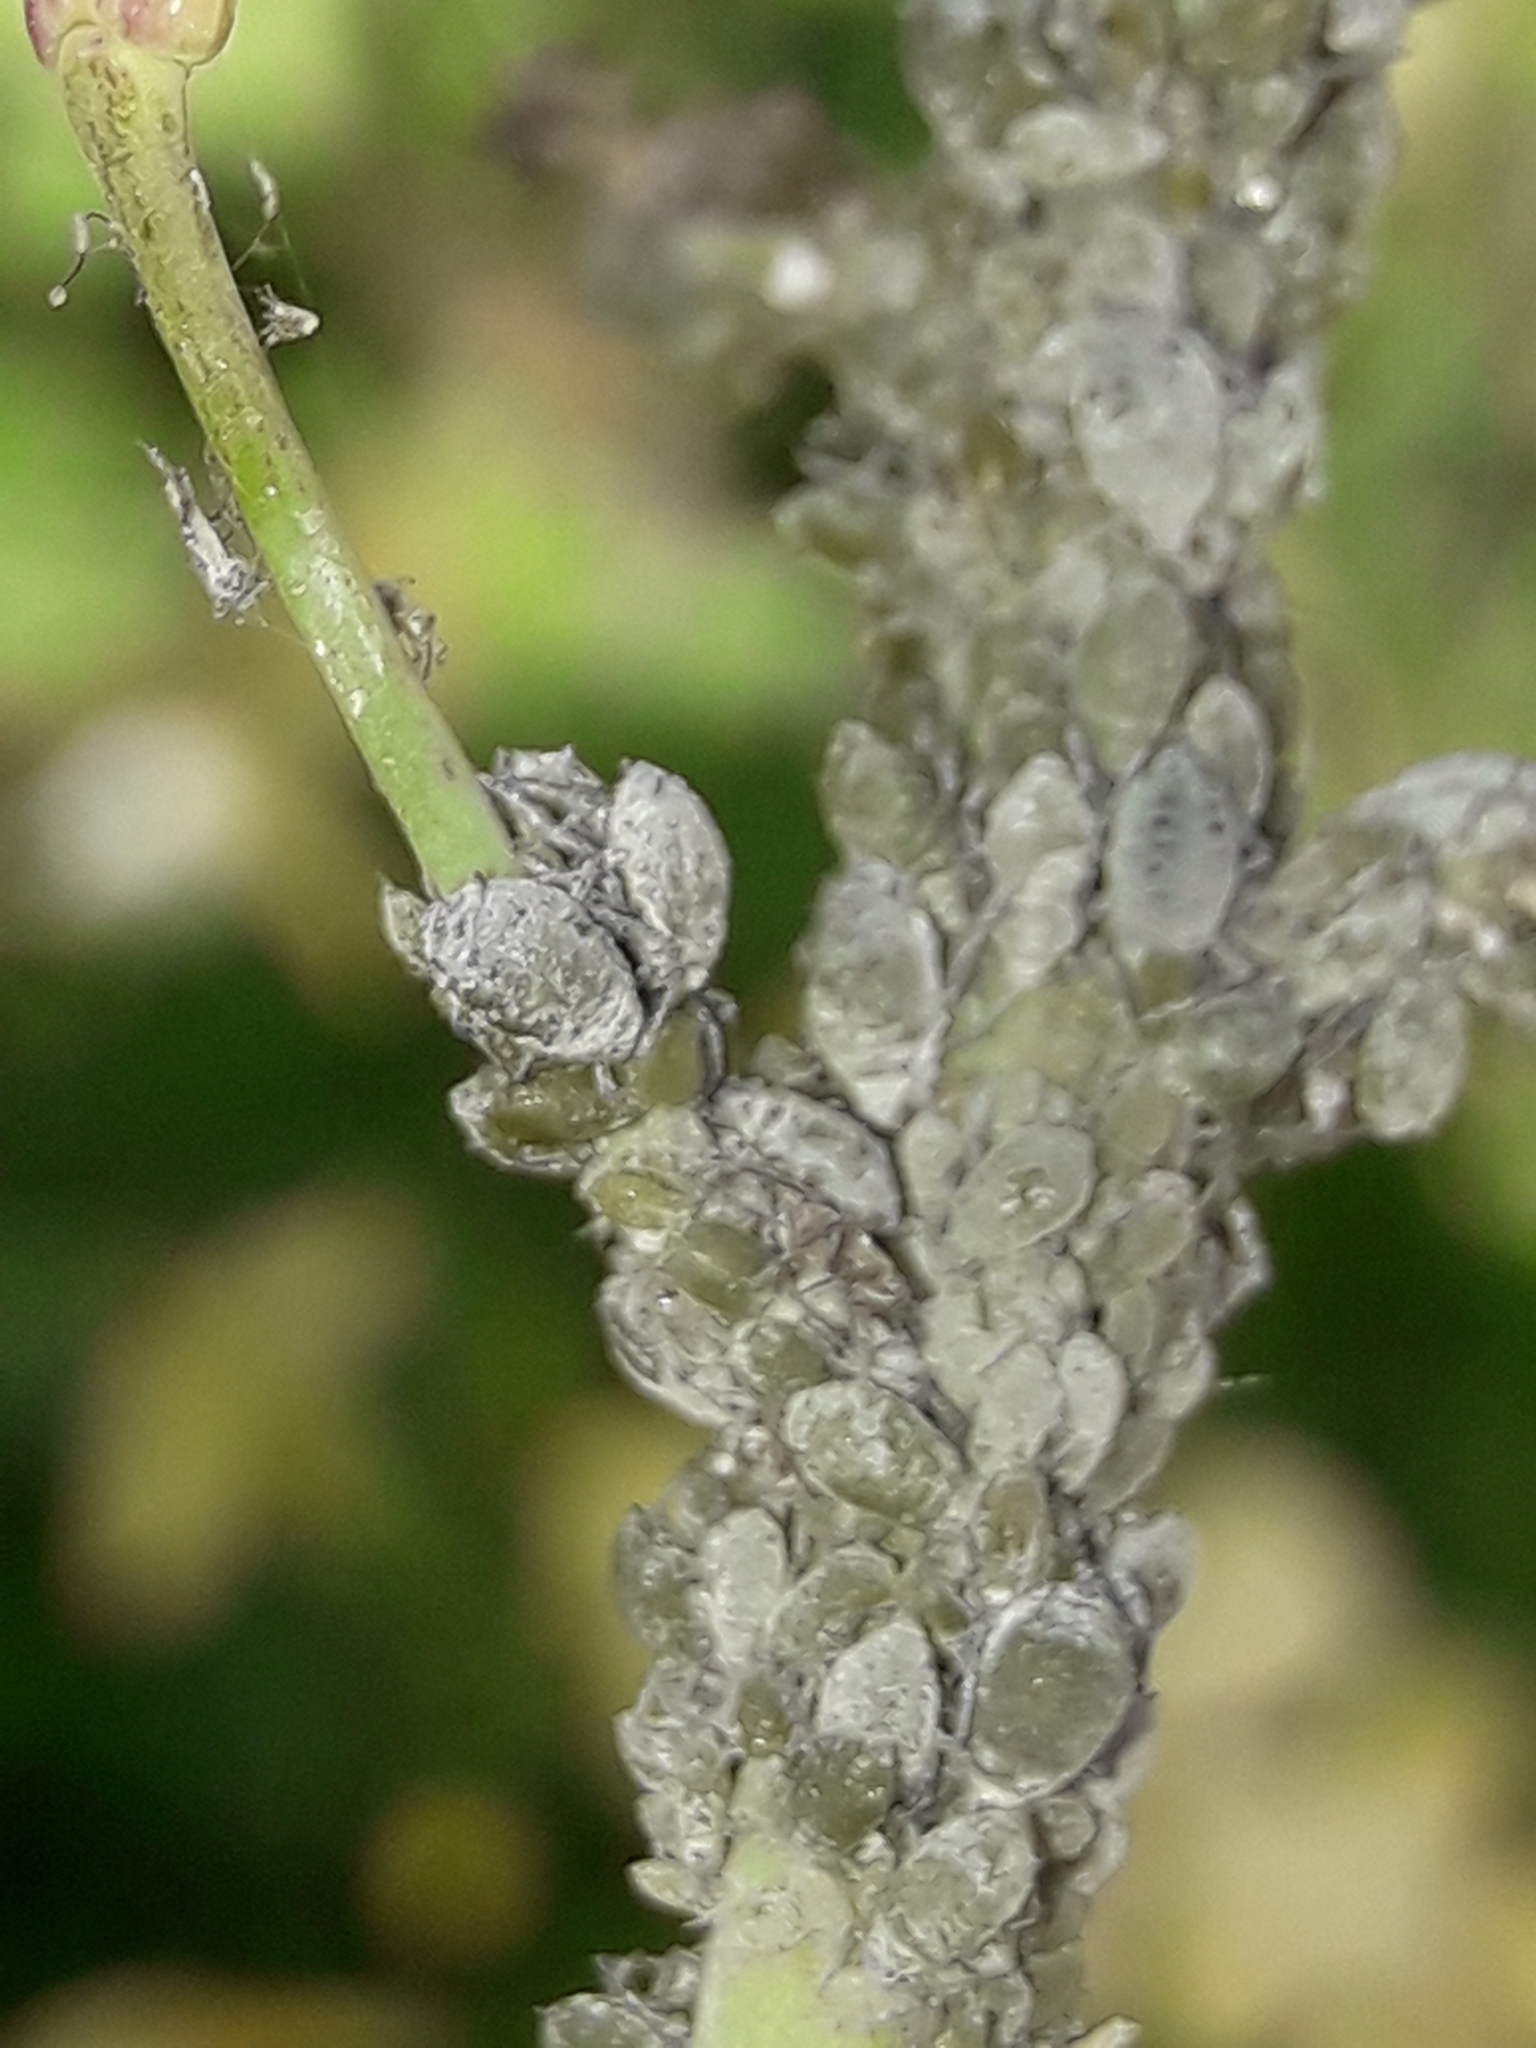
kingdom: Animalia
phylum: Arthropoda
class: Insecta
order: Hemiptera
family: Aphididae
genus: Brevicoryne
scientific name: Brevicoryne brassicae
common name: Cabbage aphid
